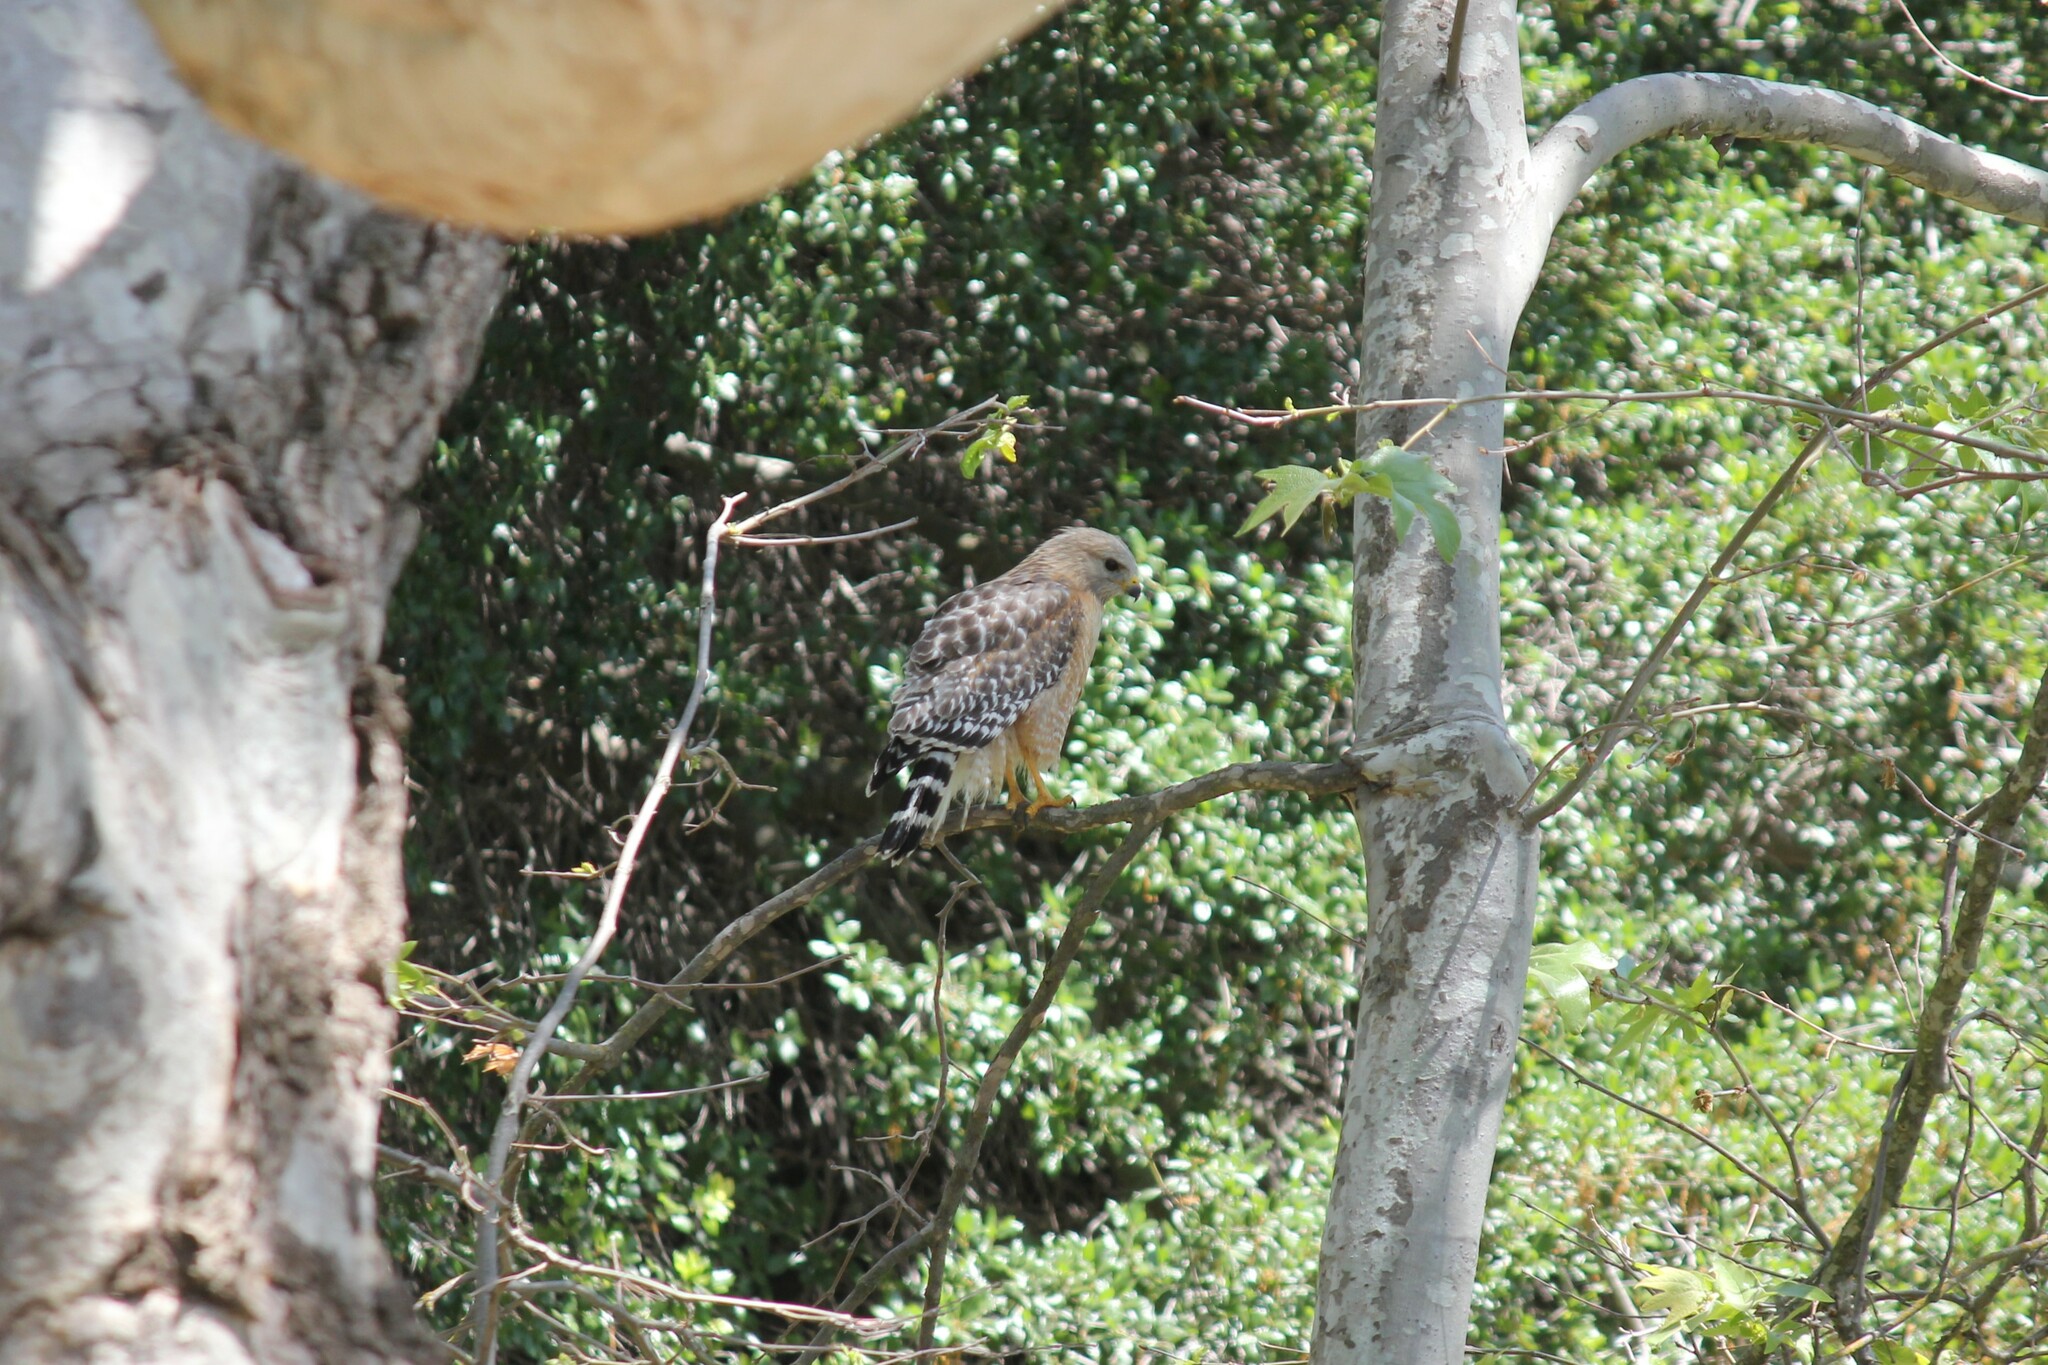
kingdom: Animalia
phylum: Chordata
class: Aves
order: Accipitriformes
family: Accipitridae
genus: Buteo
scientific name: Buteo lineatus
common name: Red-shouldered hawk
